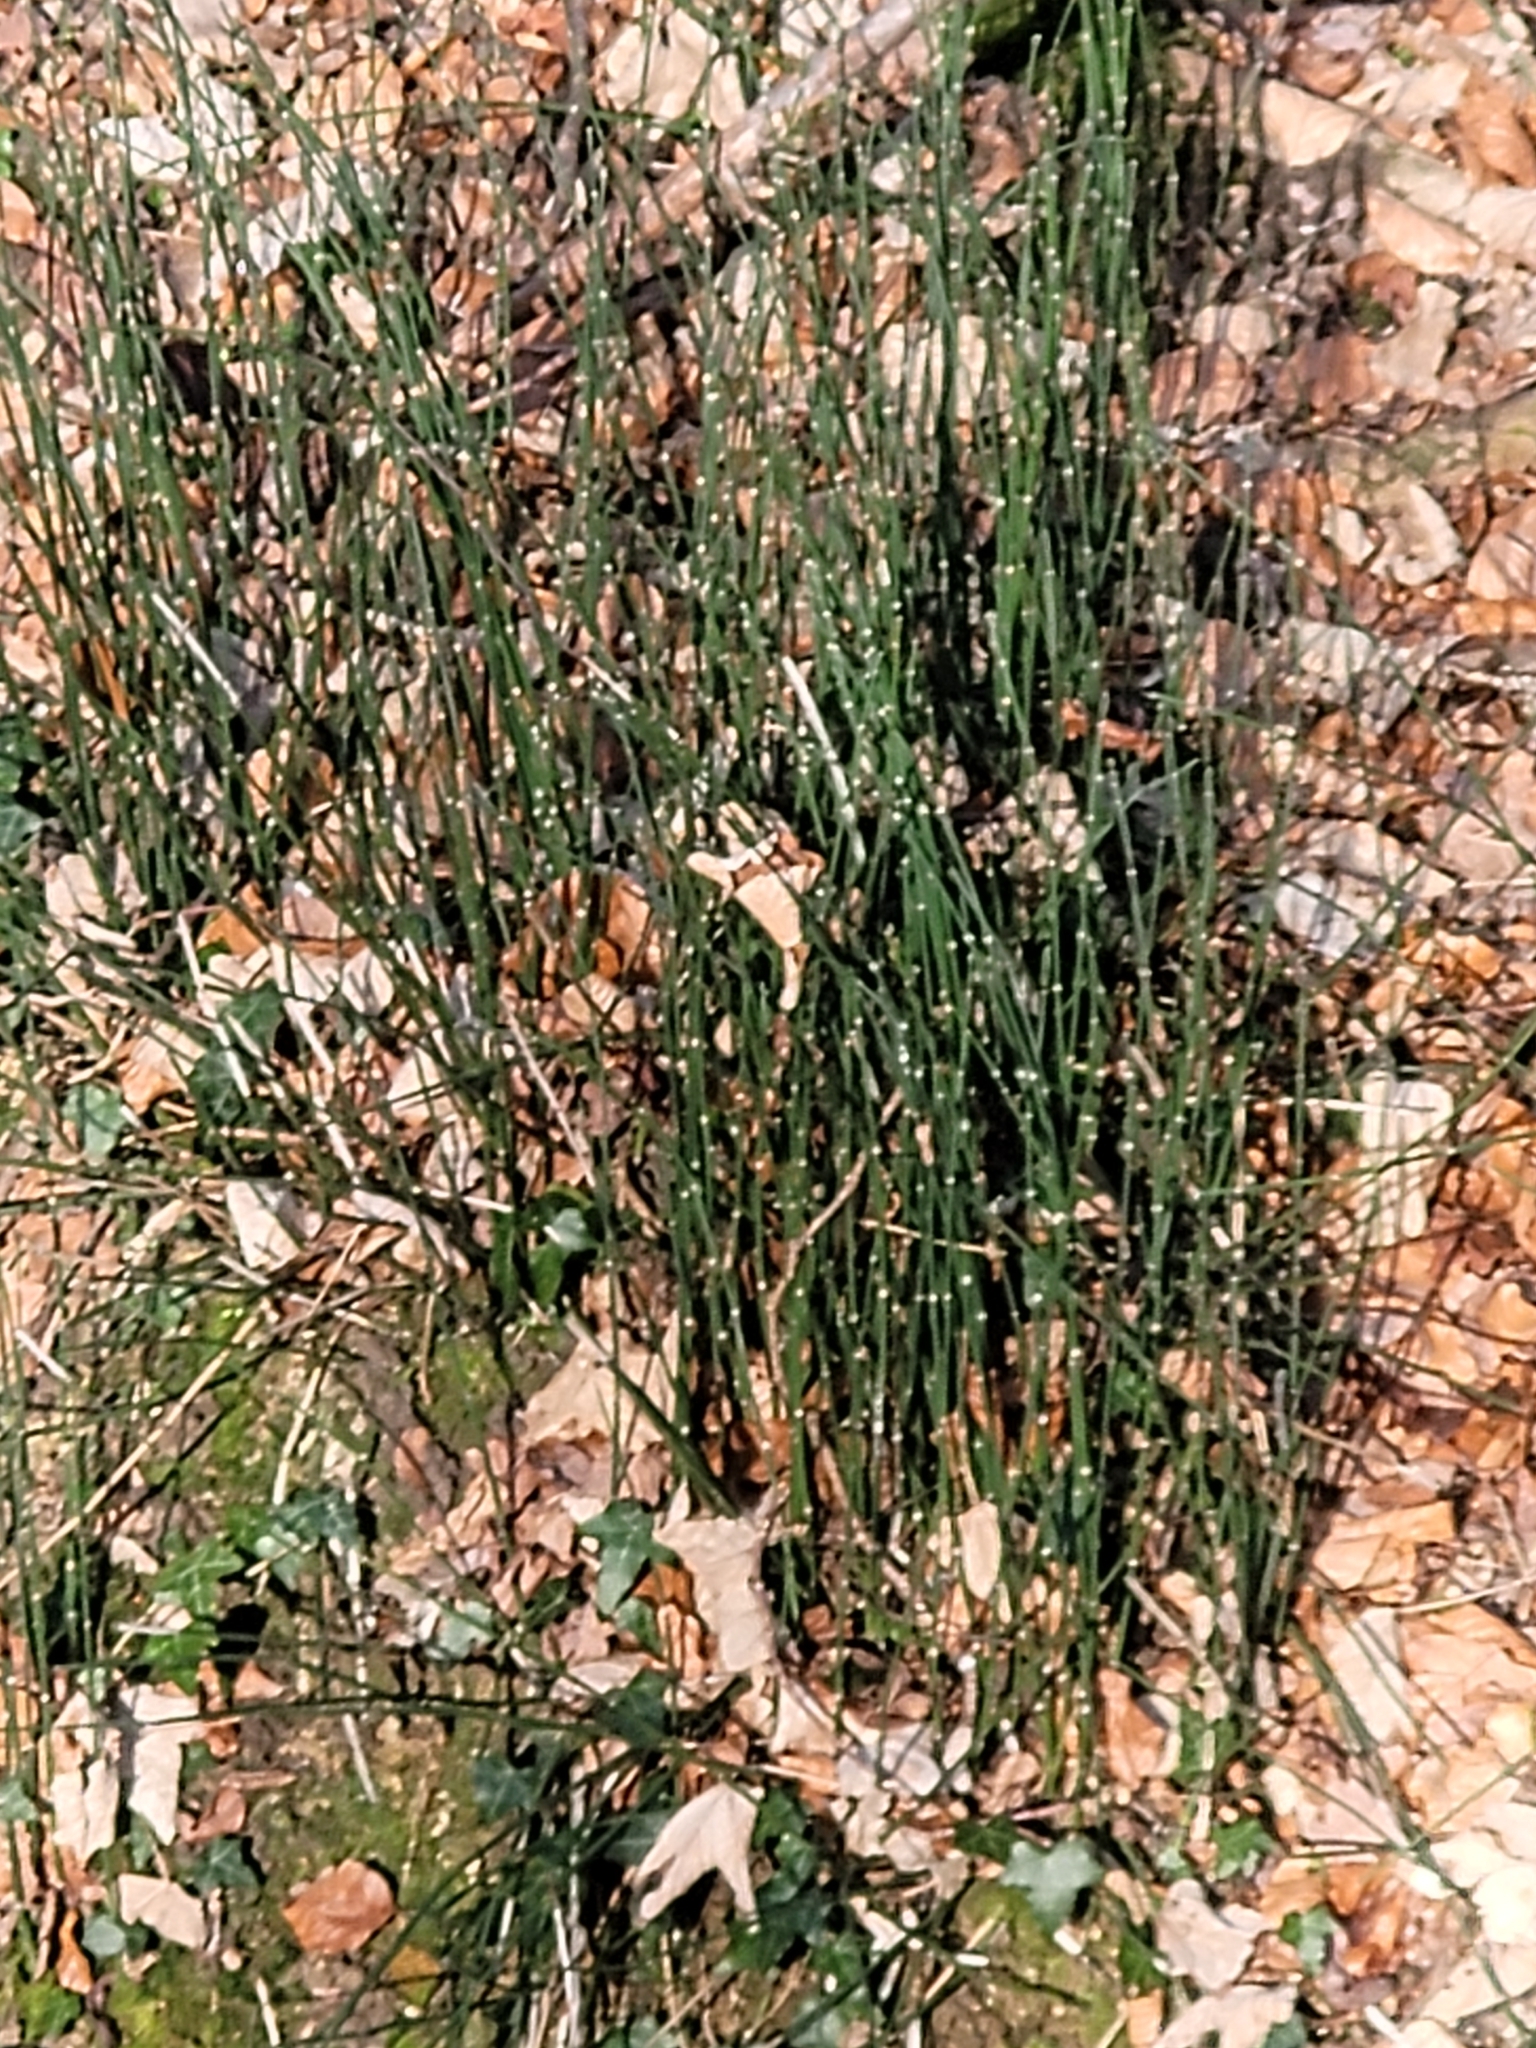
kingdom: Plantae
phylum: Tracheophyta
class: Polypodiopsida
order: Equisetales
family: Equisetaceae
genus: Equisetum
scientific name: Equisetum hyemale
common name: Rough horsetail
